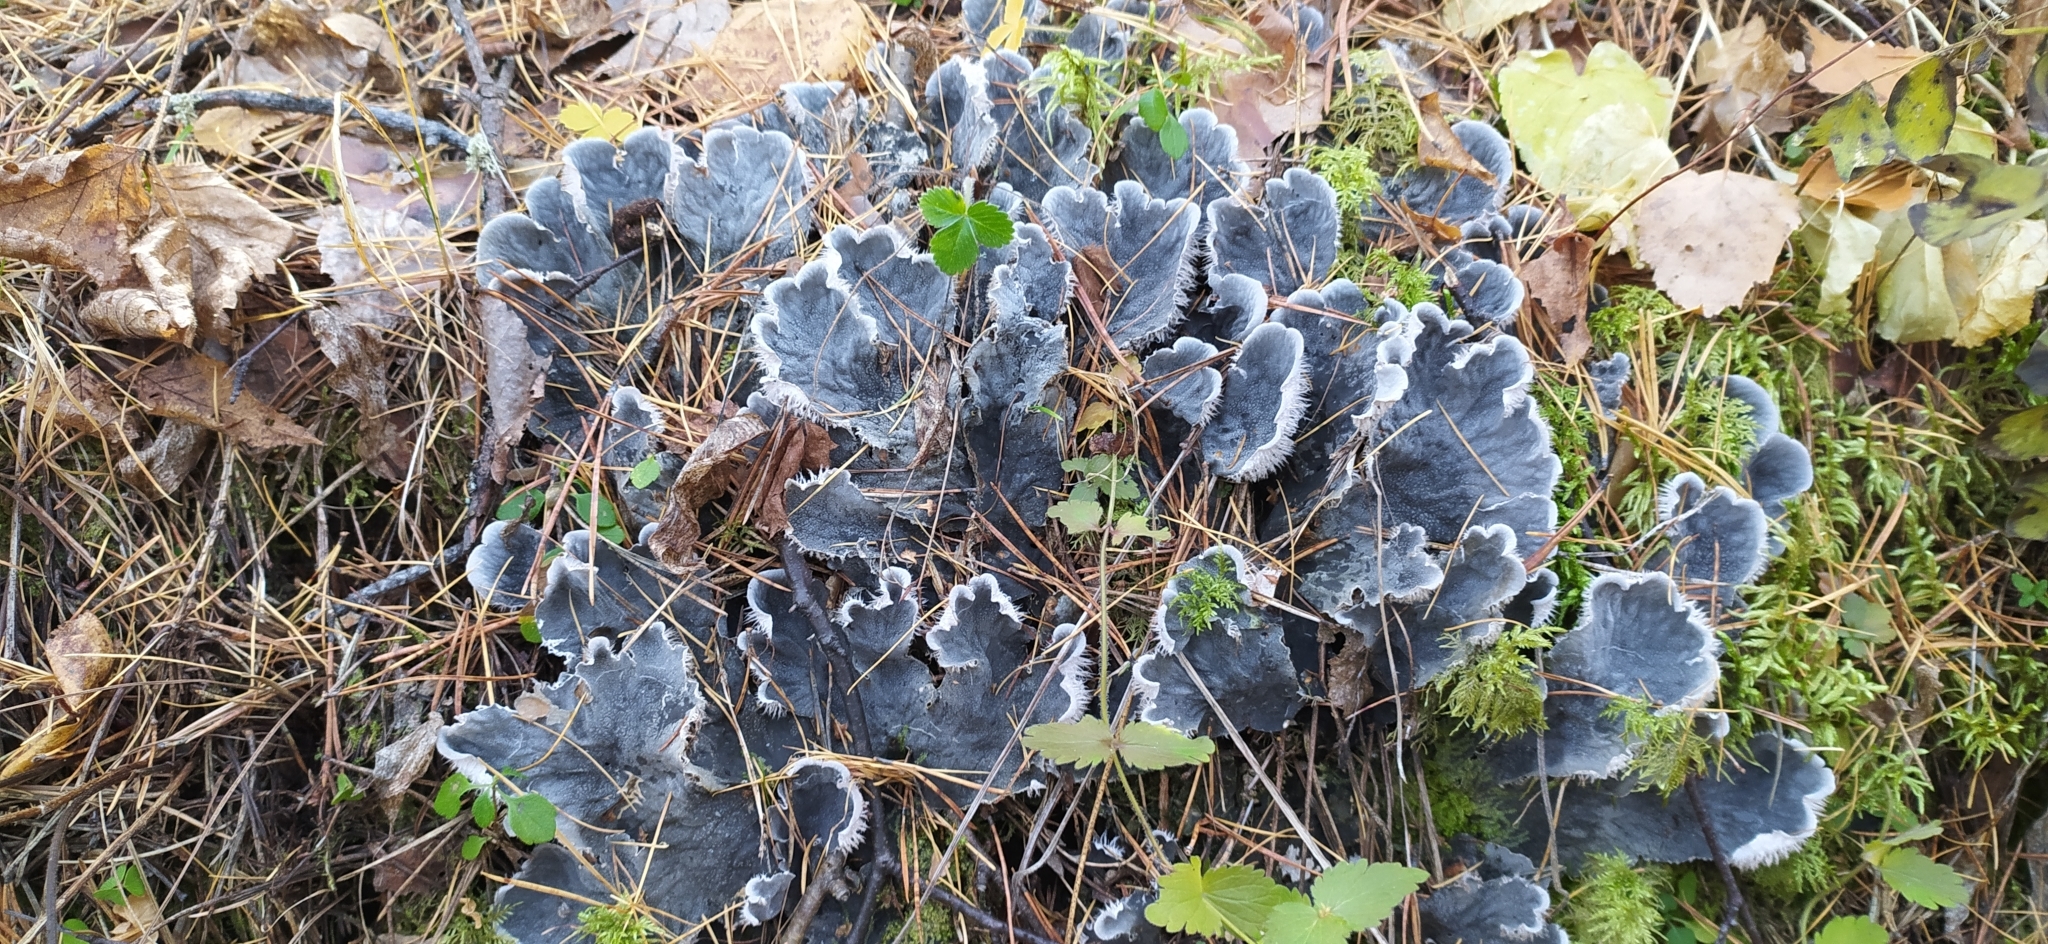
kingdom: Fungi
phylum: Ascomycota
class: Lecanoromycetes
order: Peltigerales
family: Peltigeraceae
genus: Peltigera
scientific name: Peltigera canina
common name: Dog pelt lichen
